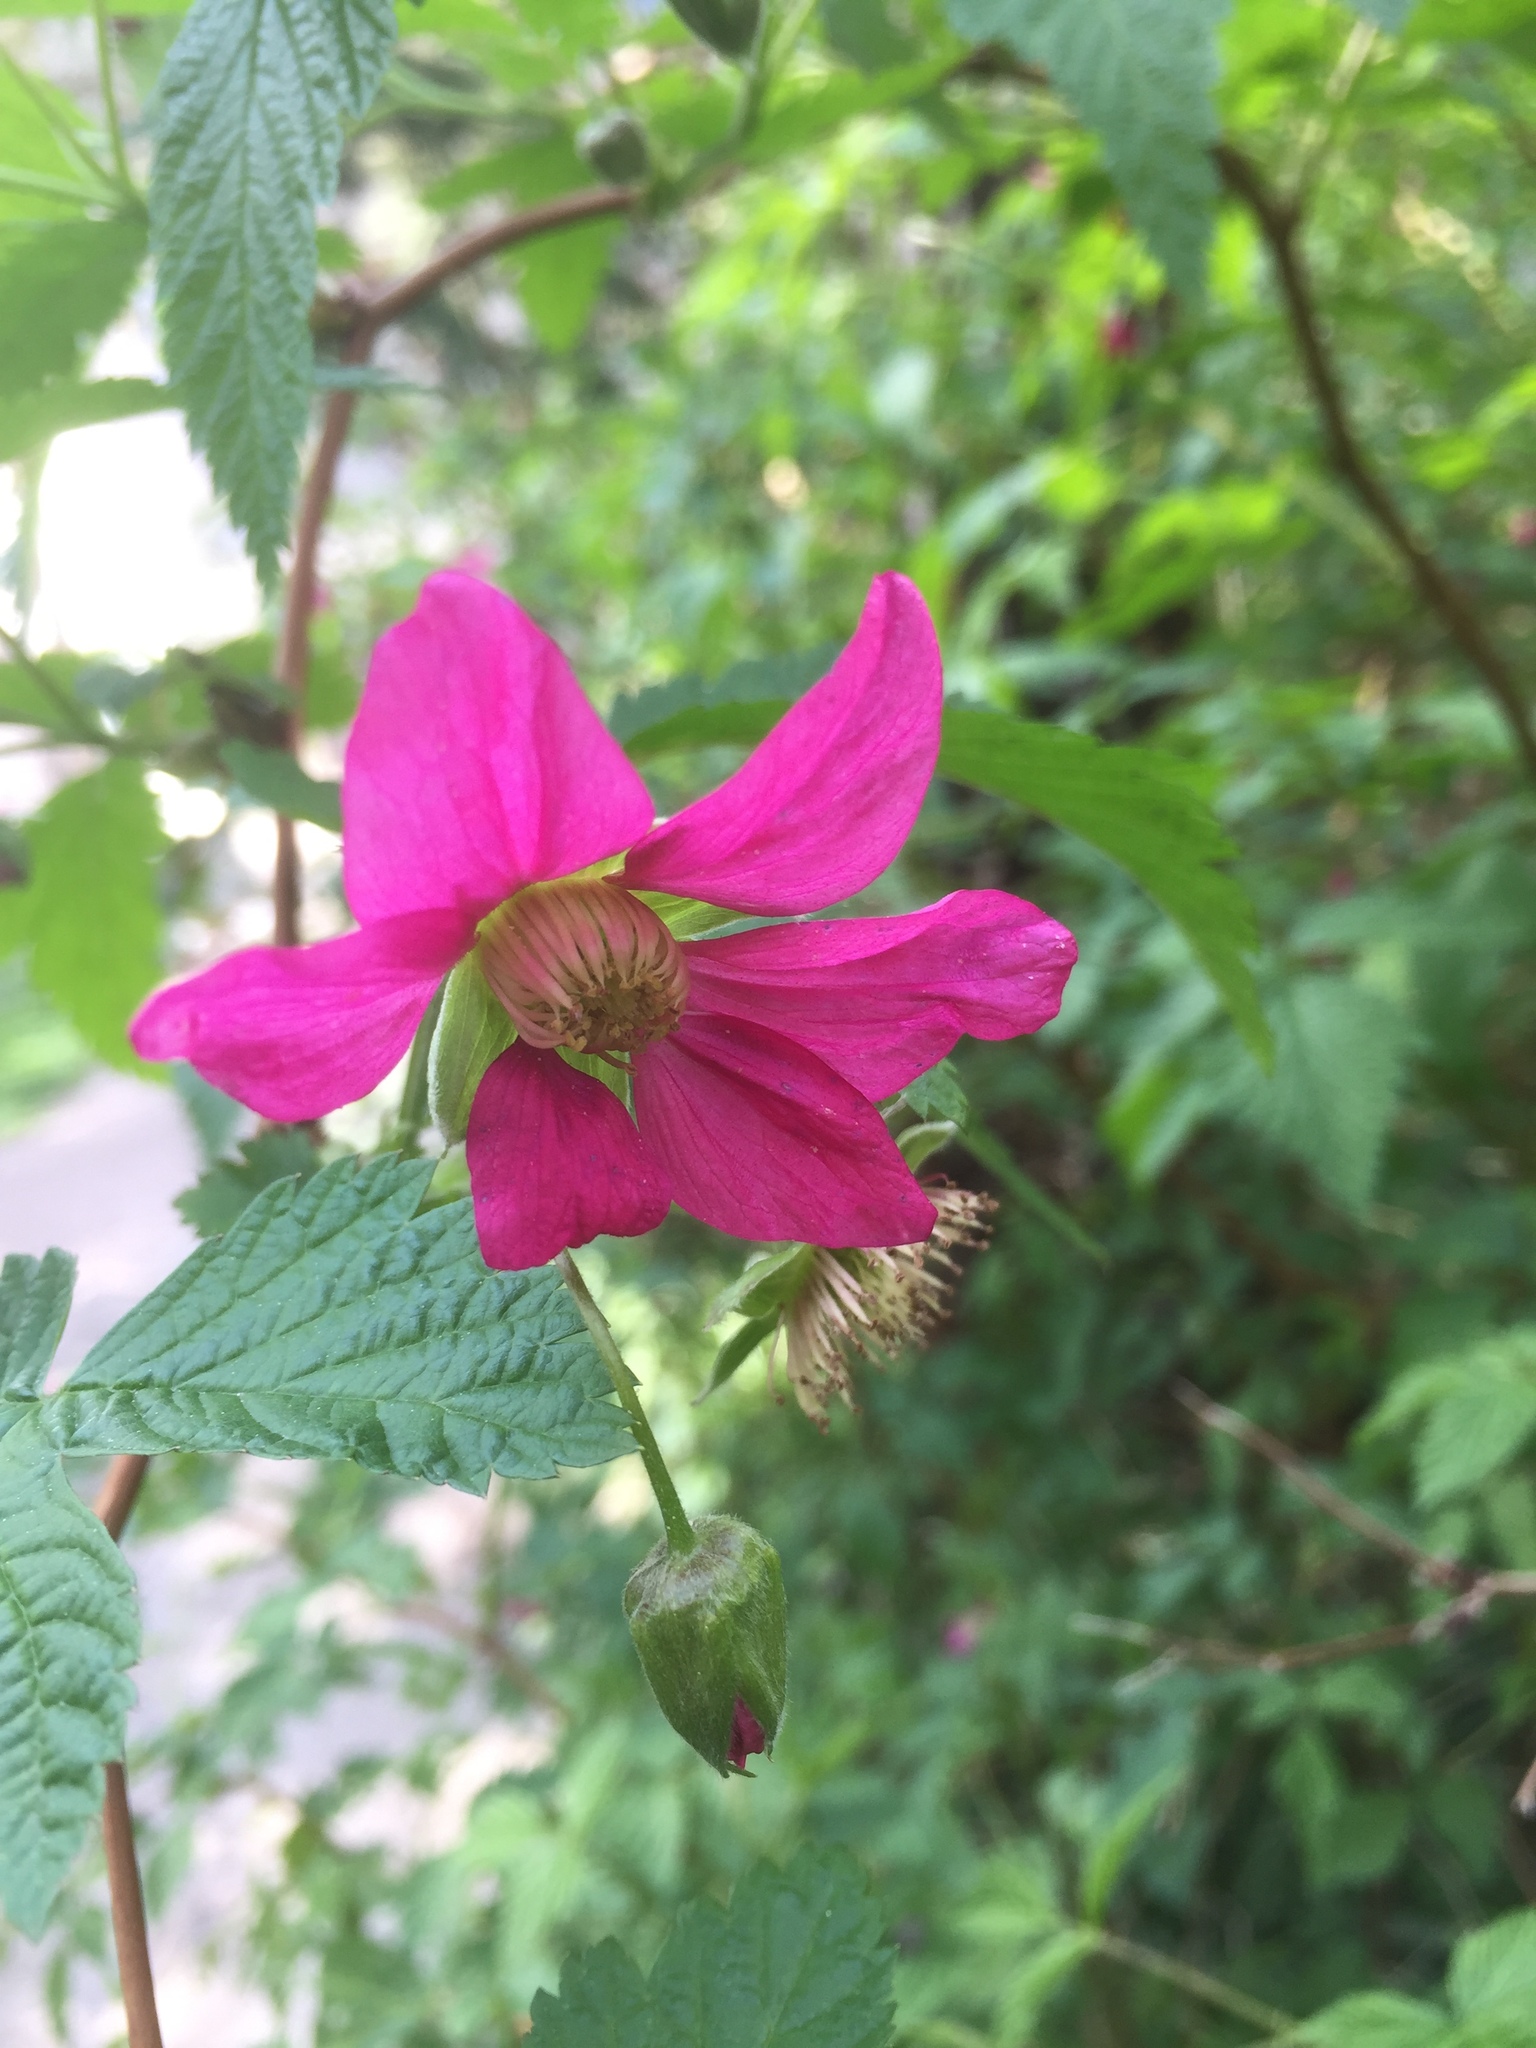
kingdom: Plantae
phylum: Tracheophyta
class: Magnoliopsida
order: Rosales
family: Rosaceae
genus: Rubus
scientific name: Rubus spectabilis
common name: Salmonberry
